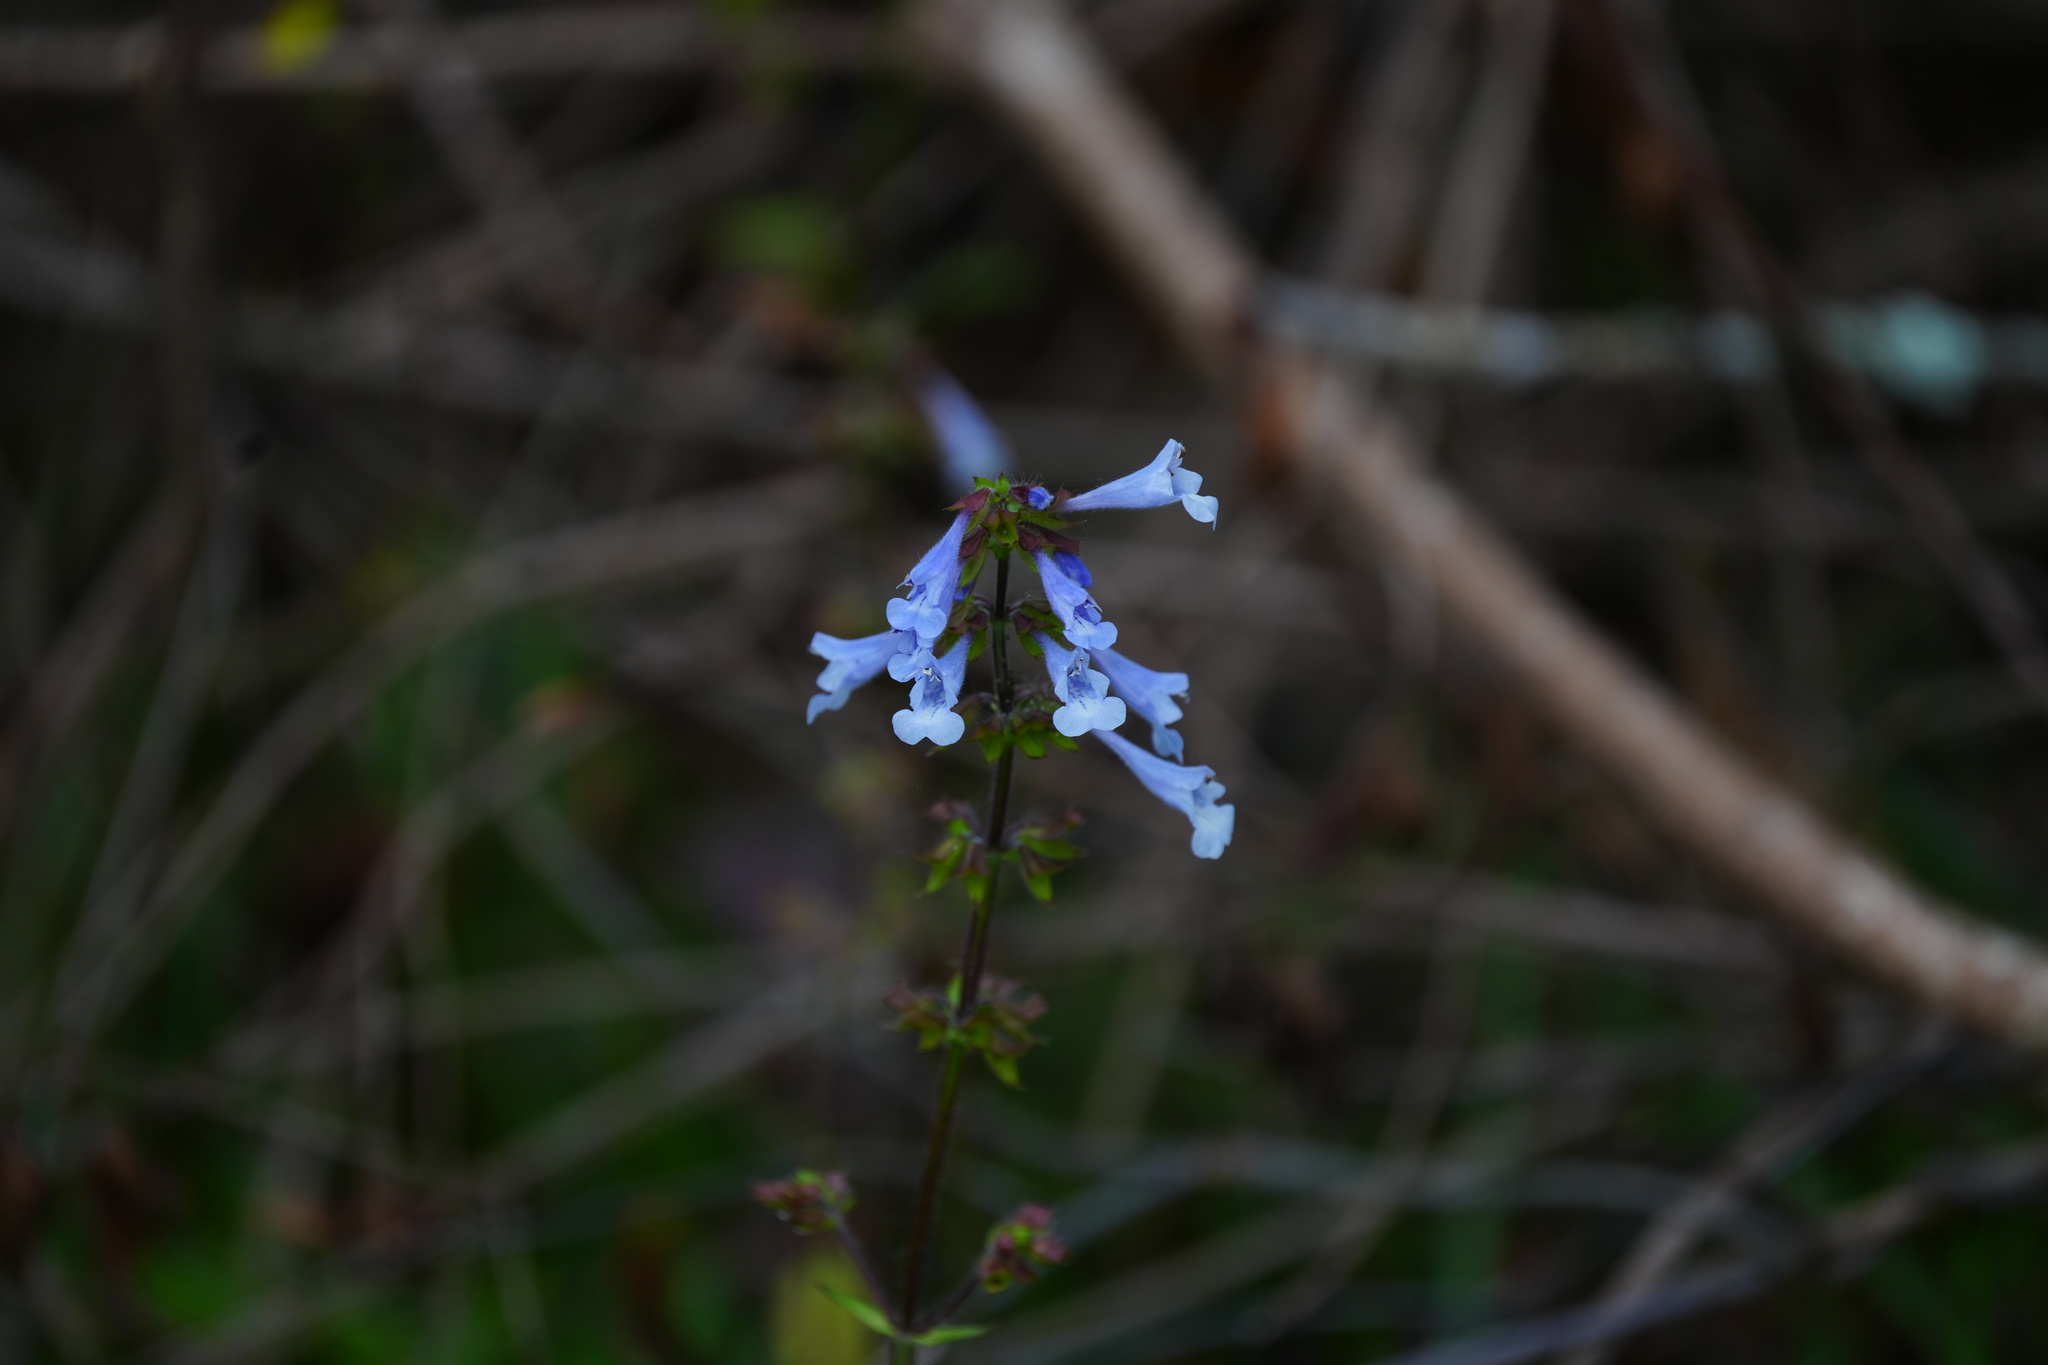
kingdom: Plantae
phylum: Tracheophyta
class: Magnoliopsida
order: Lamiales
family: Lamiaceae
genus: Salvia
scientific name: Salvia lyrata
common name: Cancerweed
